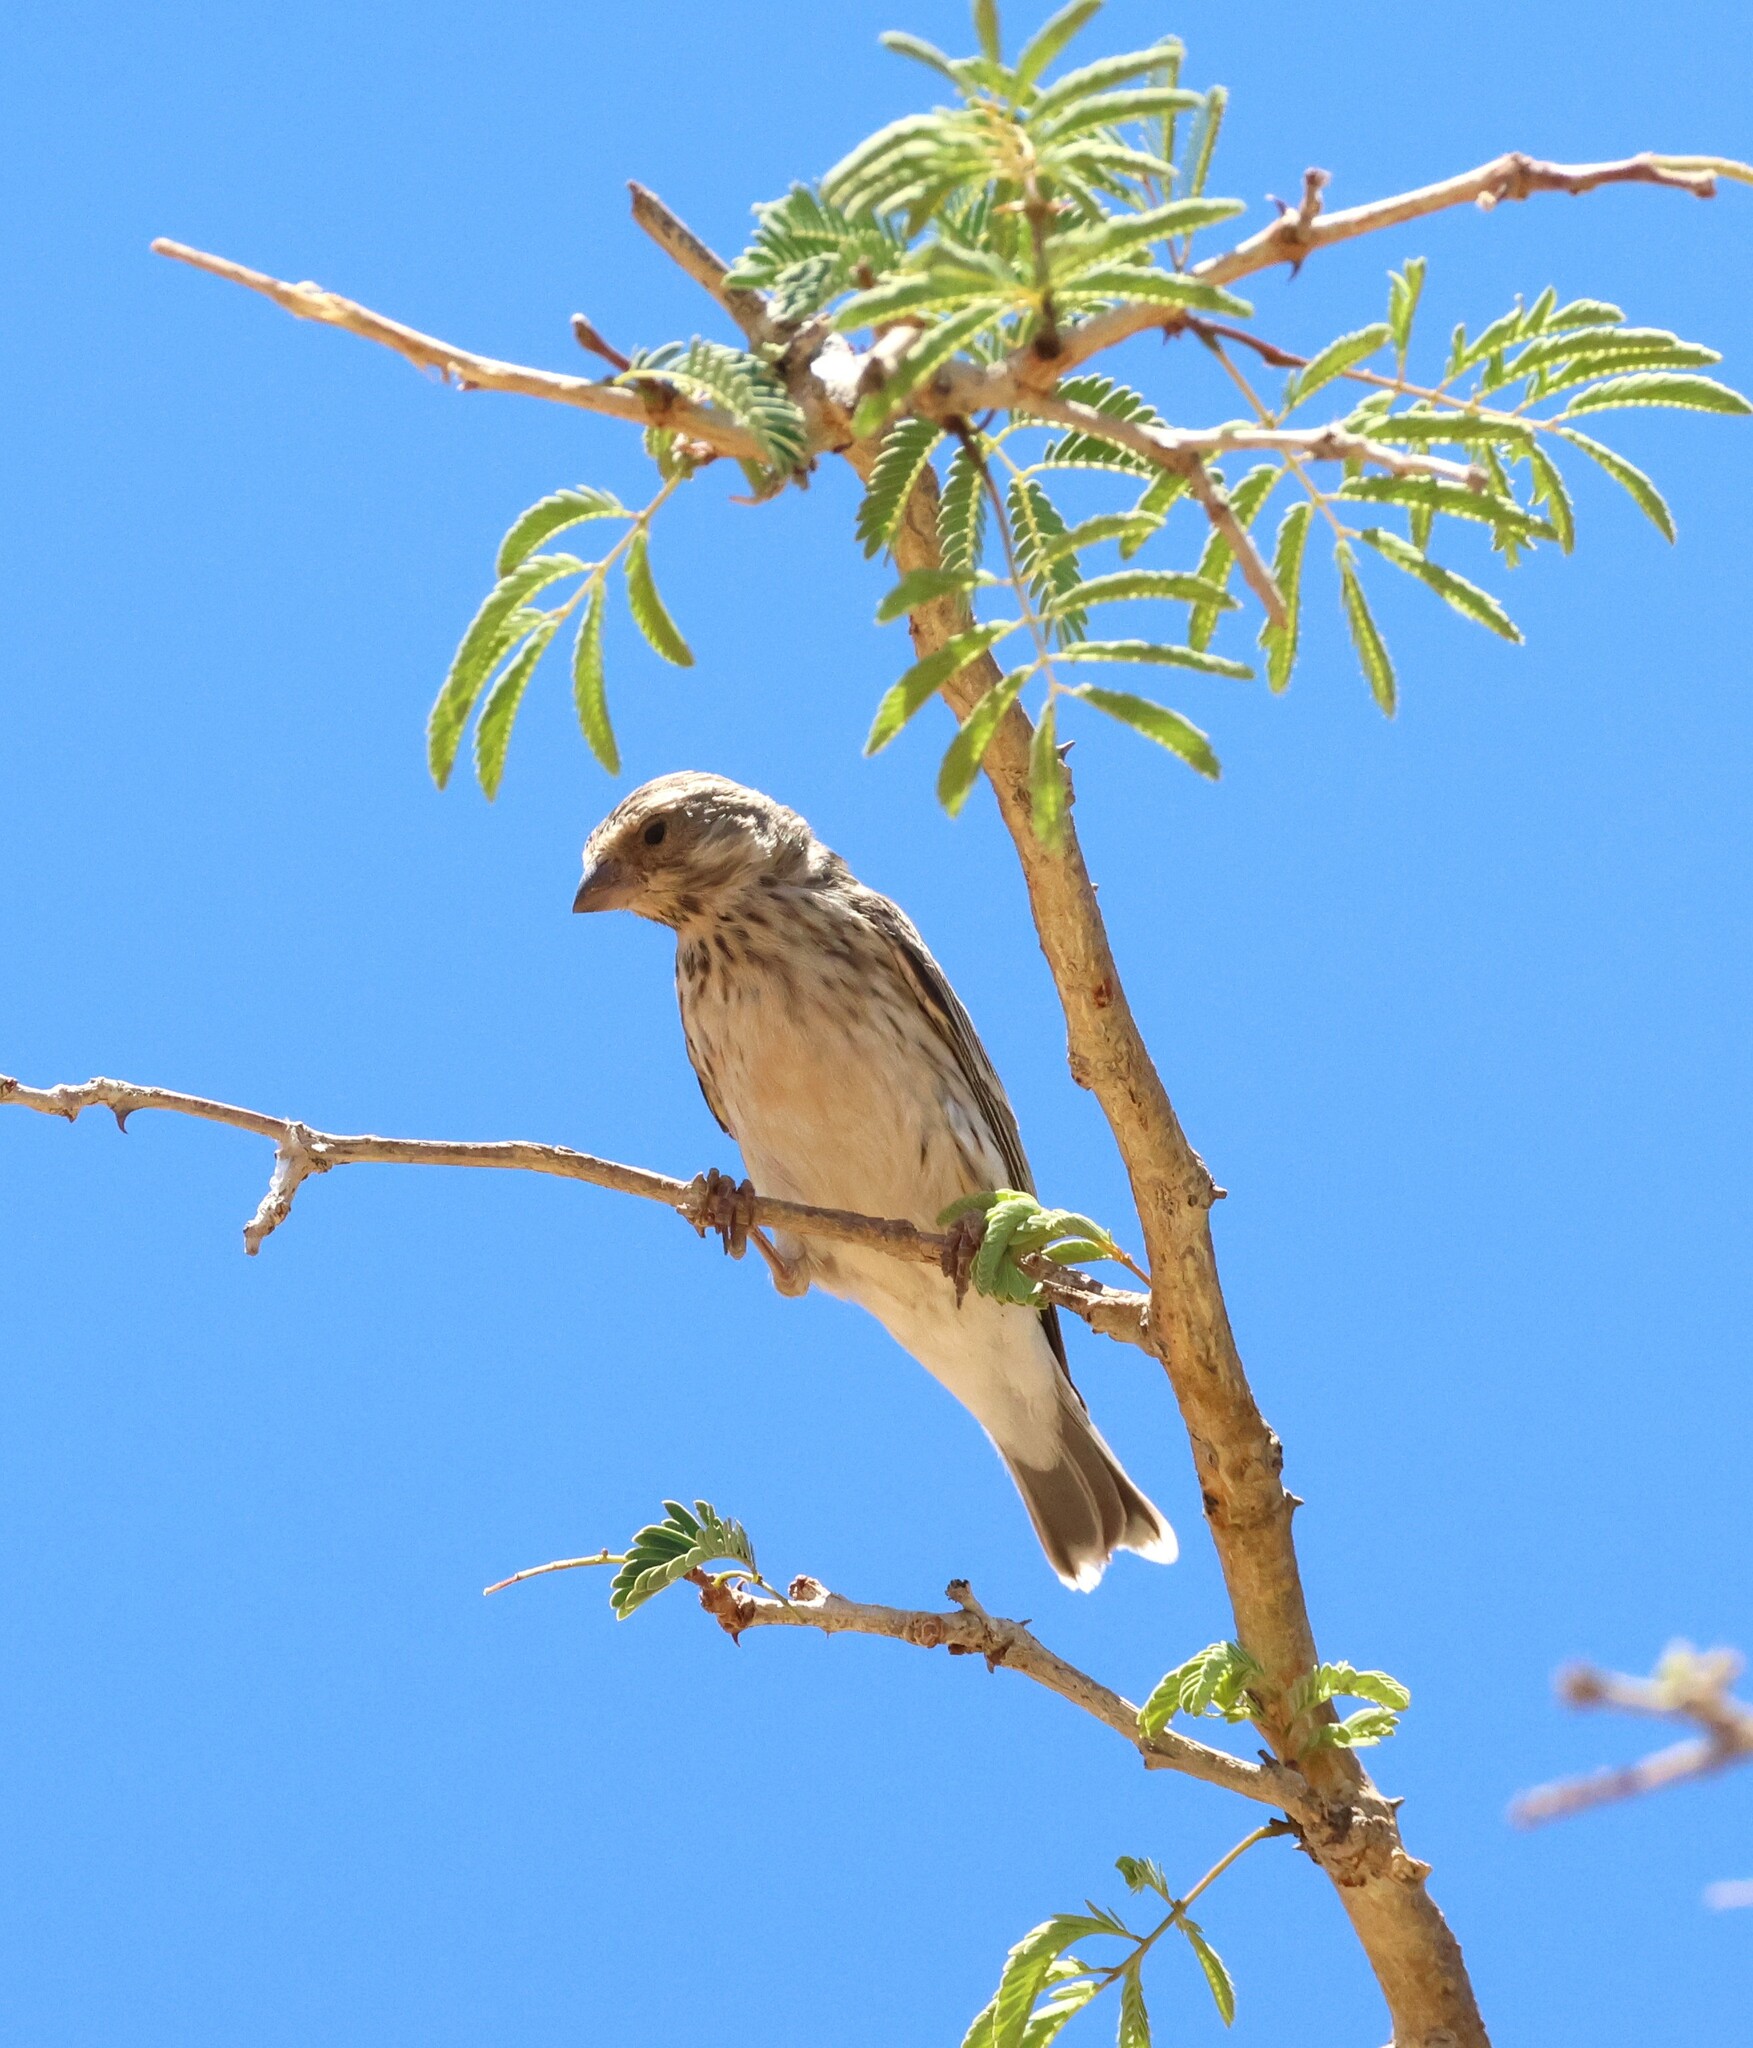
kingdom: Animalia
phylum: Chordata
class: Aves
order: Passeriformes
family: Fringillidae
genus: Crithagra
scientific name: Crithagra atrogularis
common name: Black-throated canary
